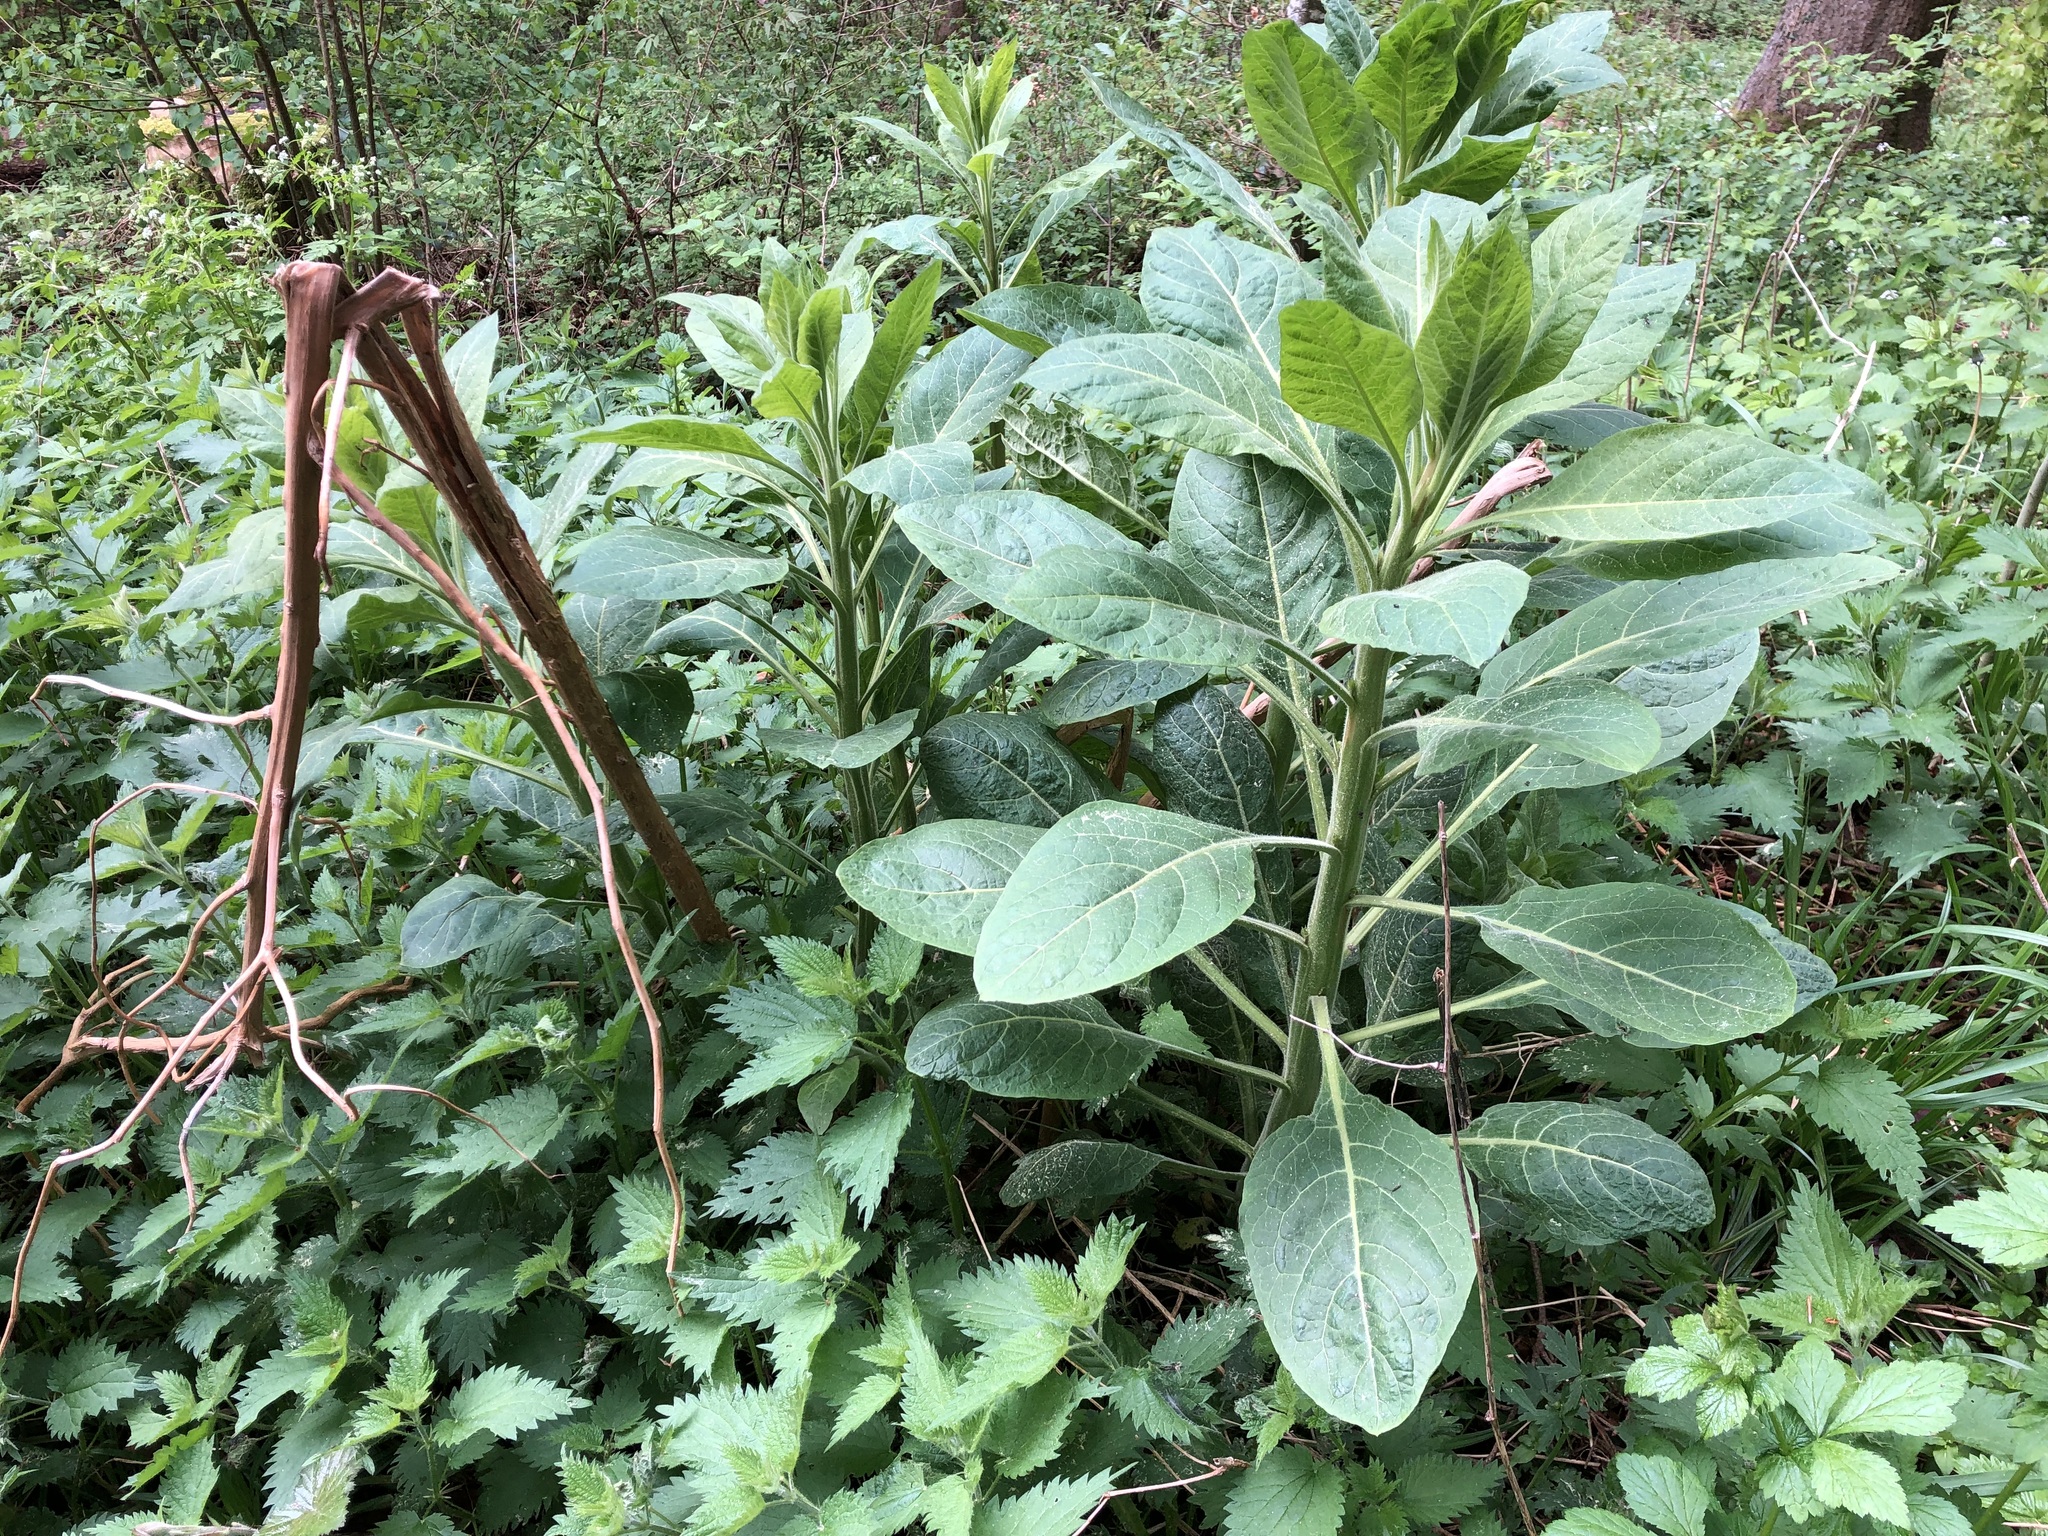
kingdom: Plantae
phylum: Tracheophyta
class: Magnoliopsida
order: Solanales
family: Solanaceae
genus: Atropa
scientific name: Atropa belladonna
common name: Deadly nightshade
